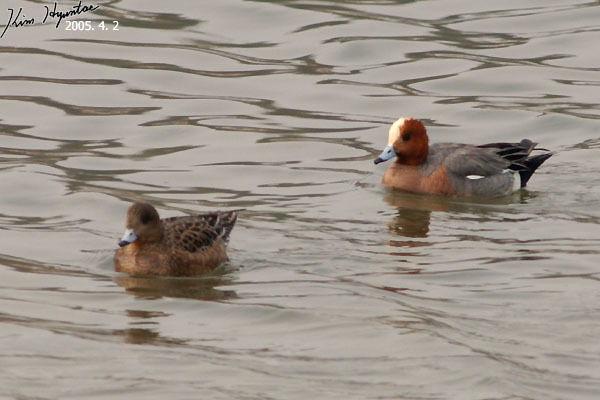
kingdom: Animalia
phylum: Chordata
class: Aves
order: Anseriformes
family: Anatidae
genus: Mareca
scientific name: Mareca penelope
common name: Eurasian wigeon
